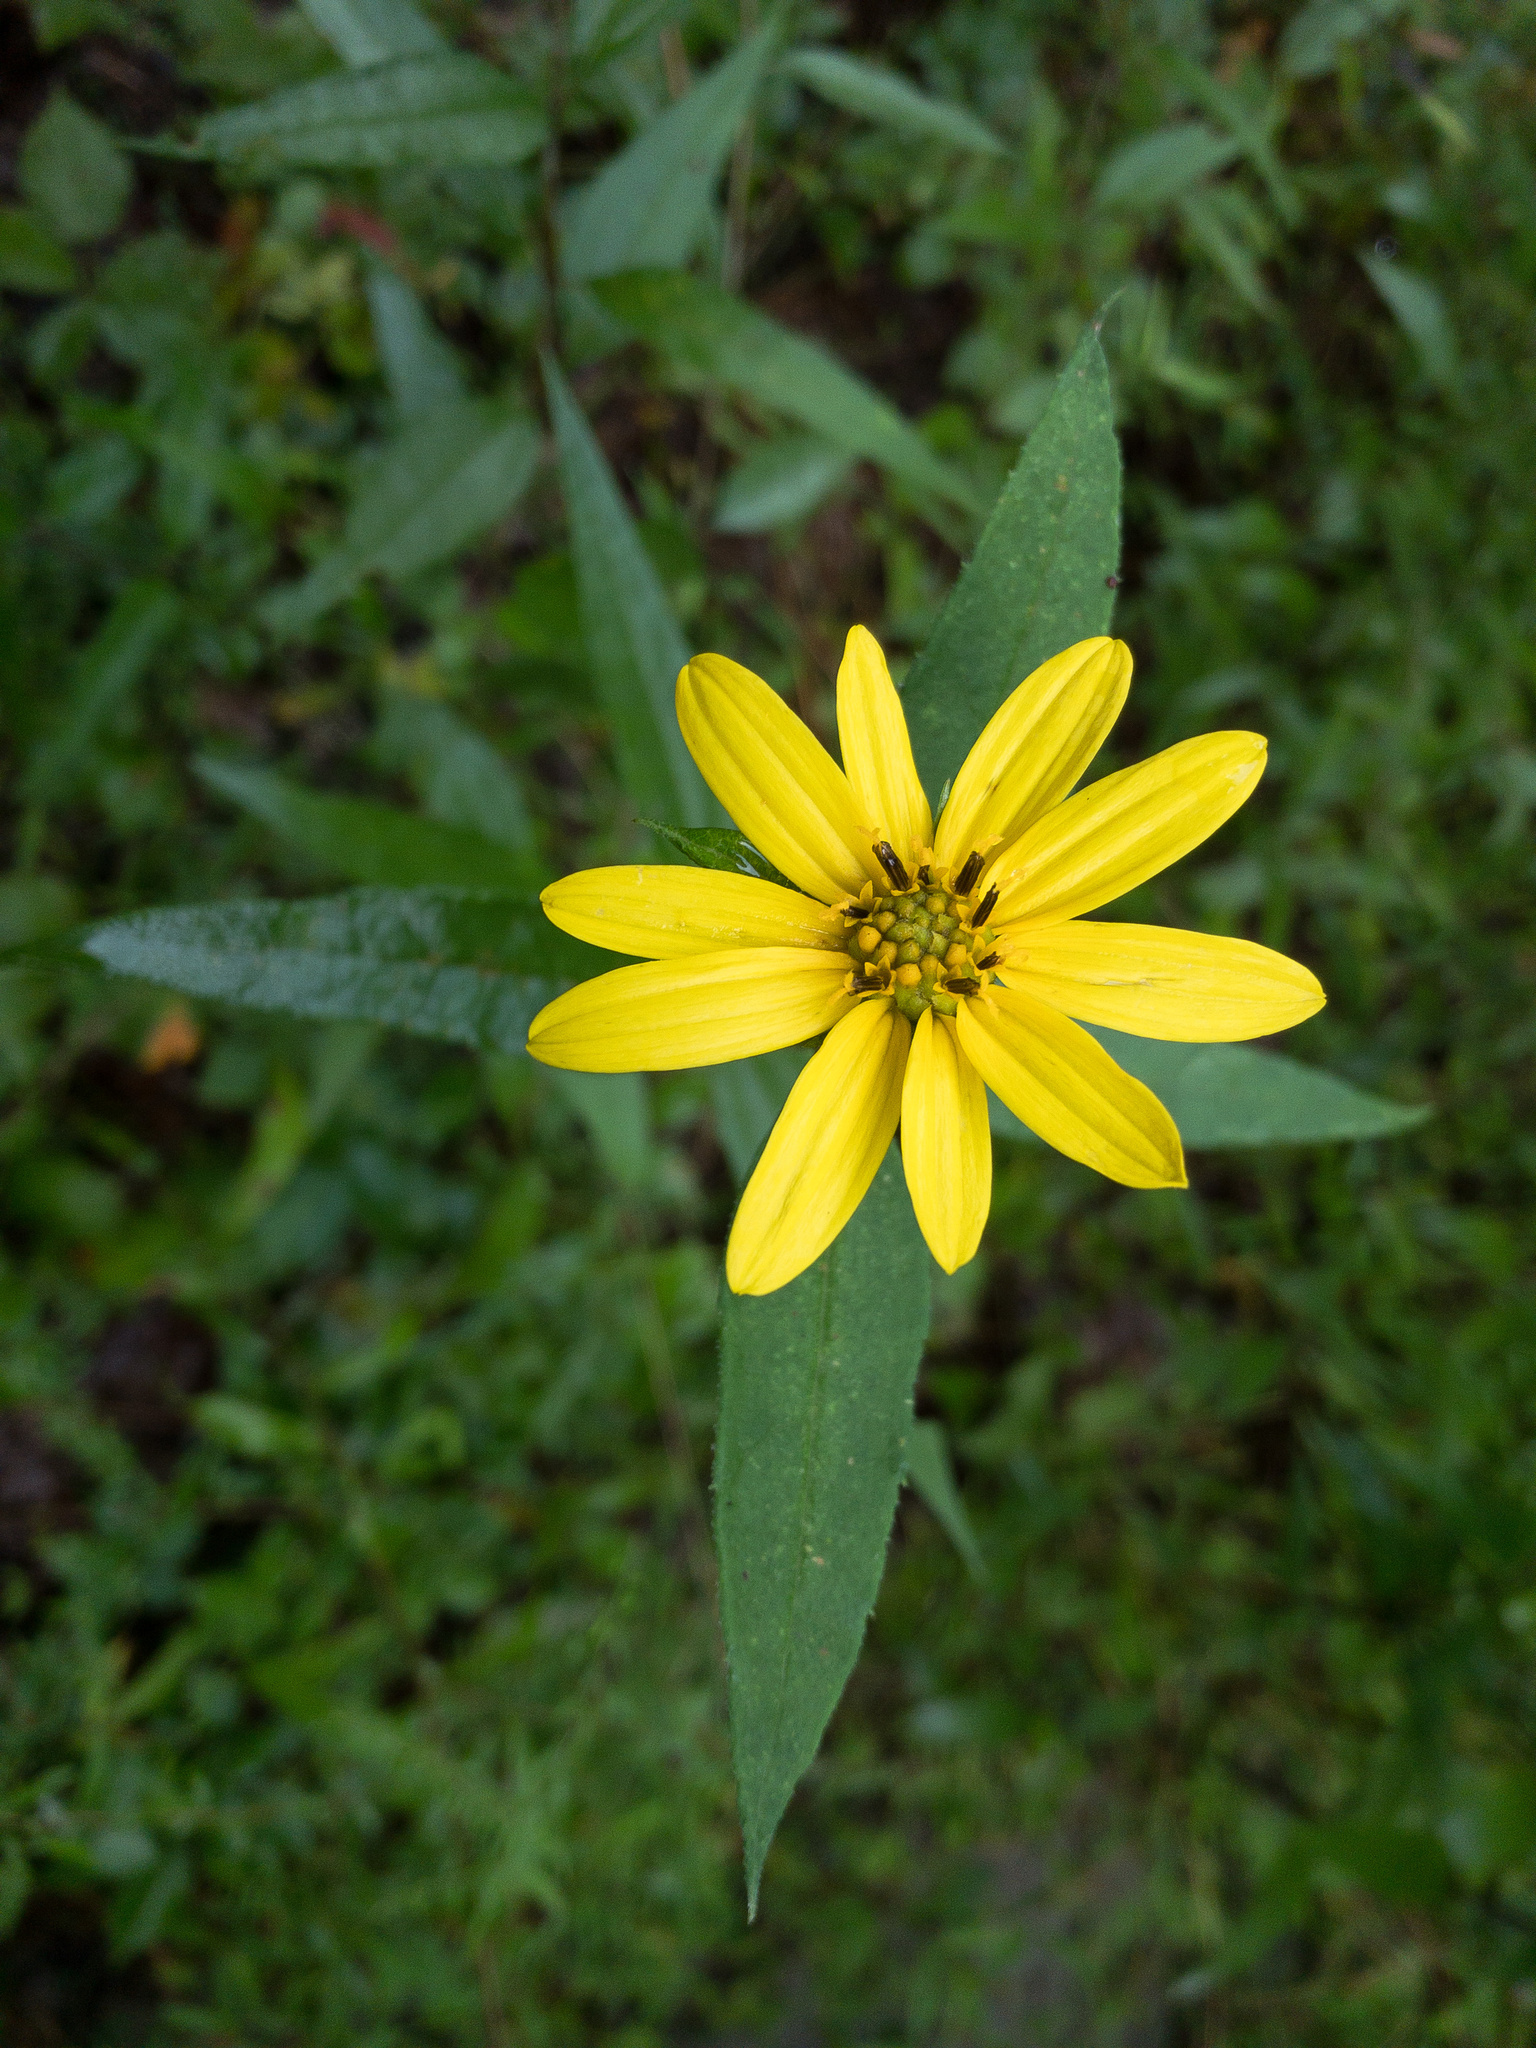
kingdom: Plantae
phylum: Tracheophyta
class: Magnoliopsida
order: Asterales
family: Asteraceae
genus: Helianthus
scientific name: Helianthus decapetalus
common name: Thin-leaved sunflower
